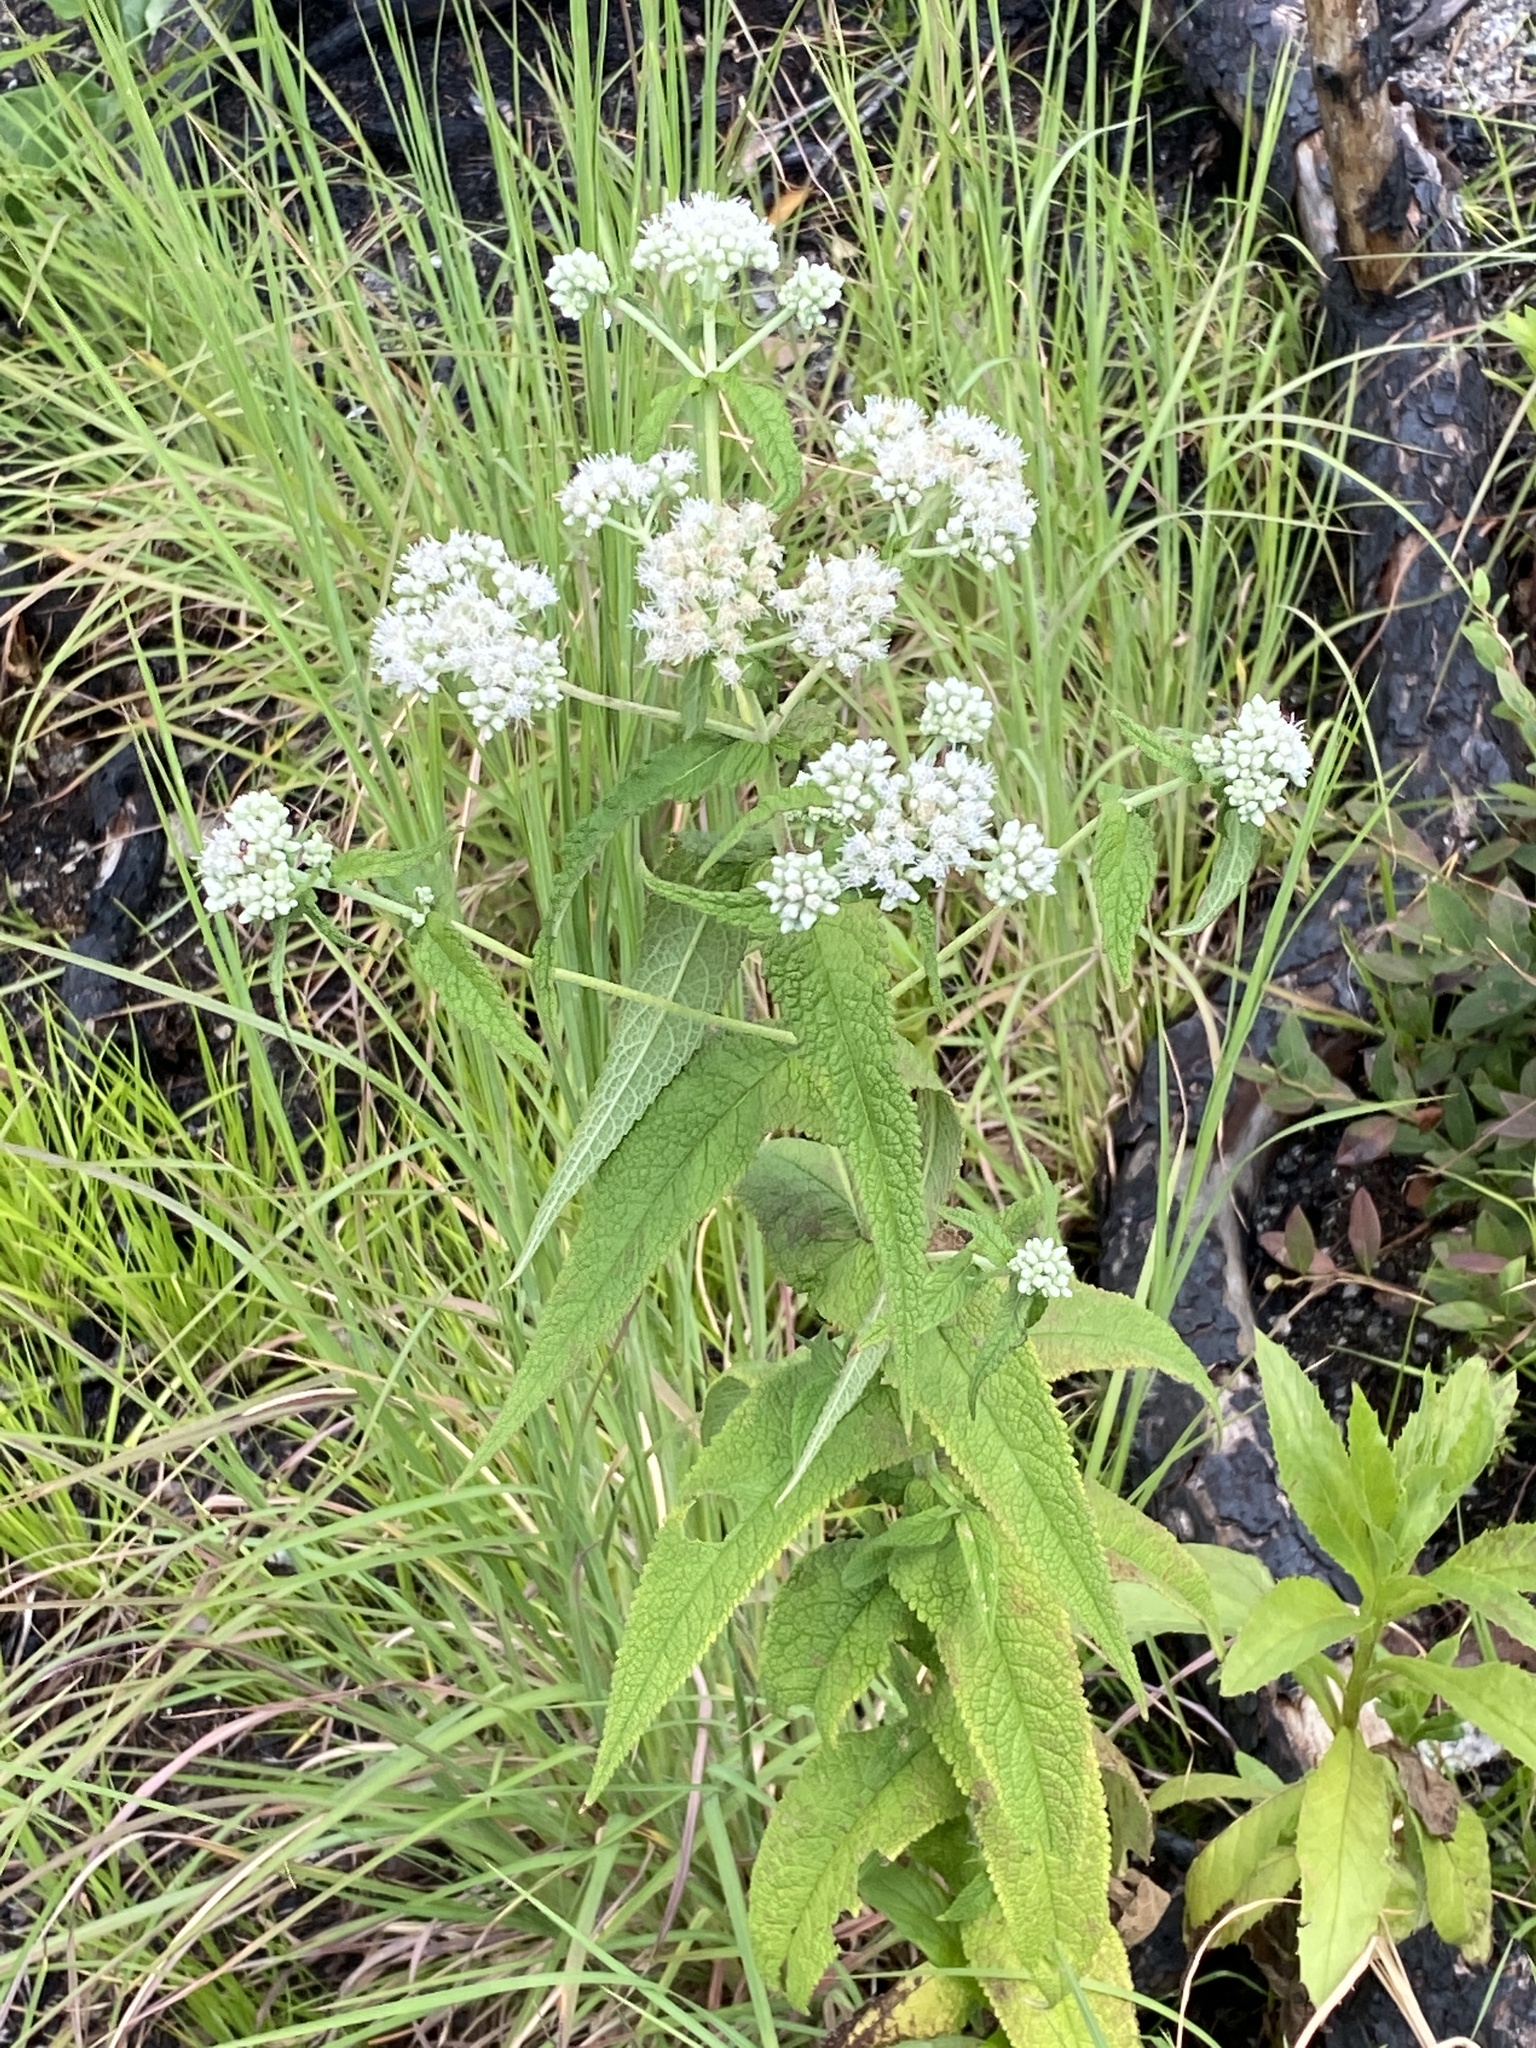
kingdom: Plantae
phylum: Tracheophyta
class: Magnoliopsida
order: Asterales
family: Asteraceae
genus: Eupatorium
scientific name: Eupatorium perfoliatum
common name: Boneset
